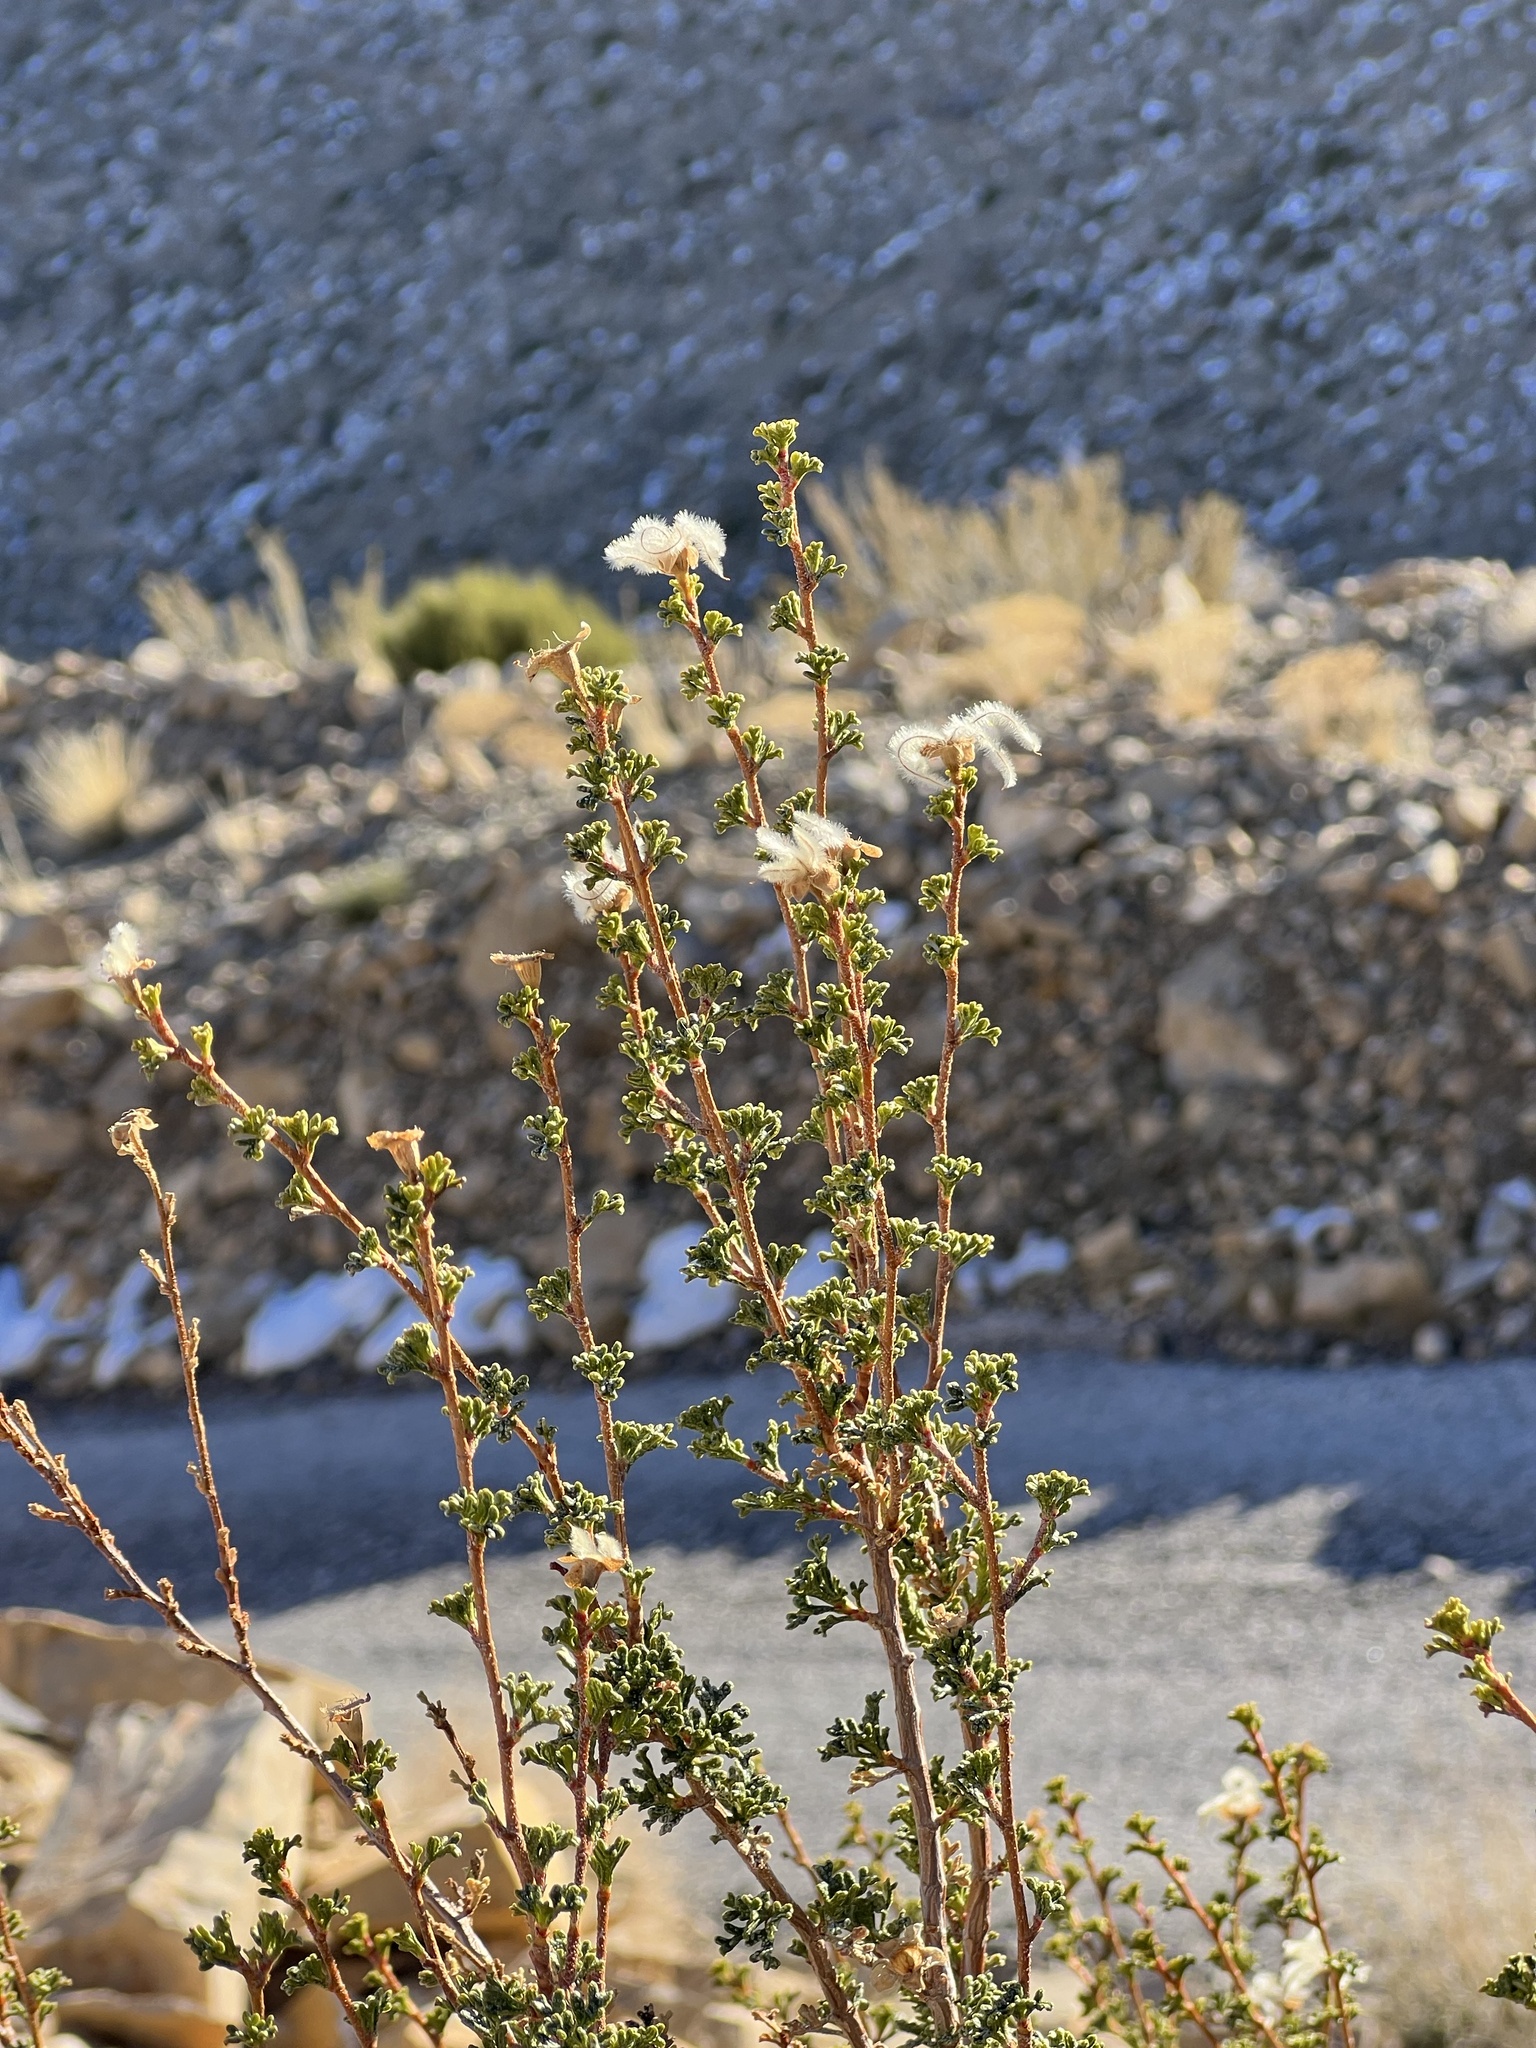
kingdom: Plantae
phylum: Tracheophyta
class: Magnoliopsida
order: Rosales
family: Rosaceae
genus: Purshia
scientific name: Purshia stansburiana
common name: Stansbury's cliffrose
